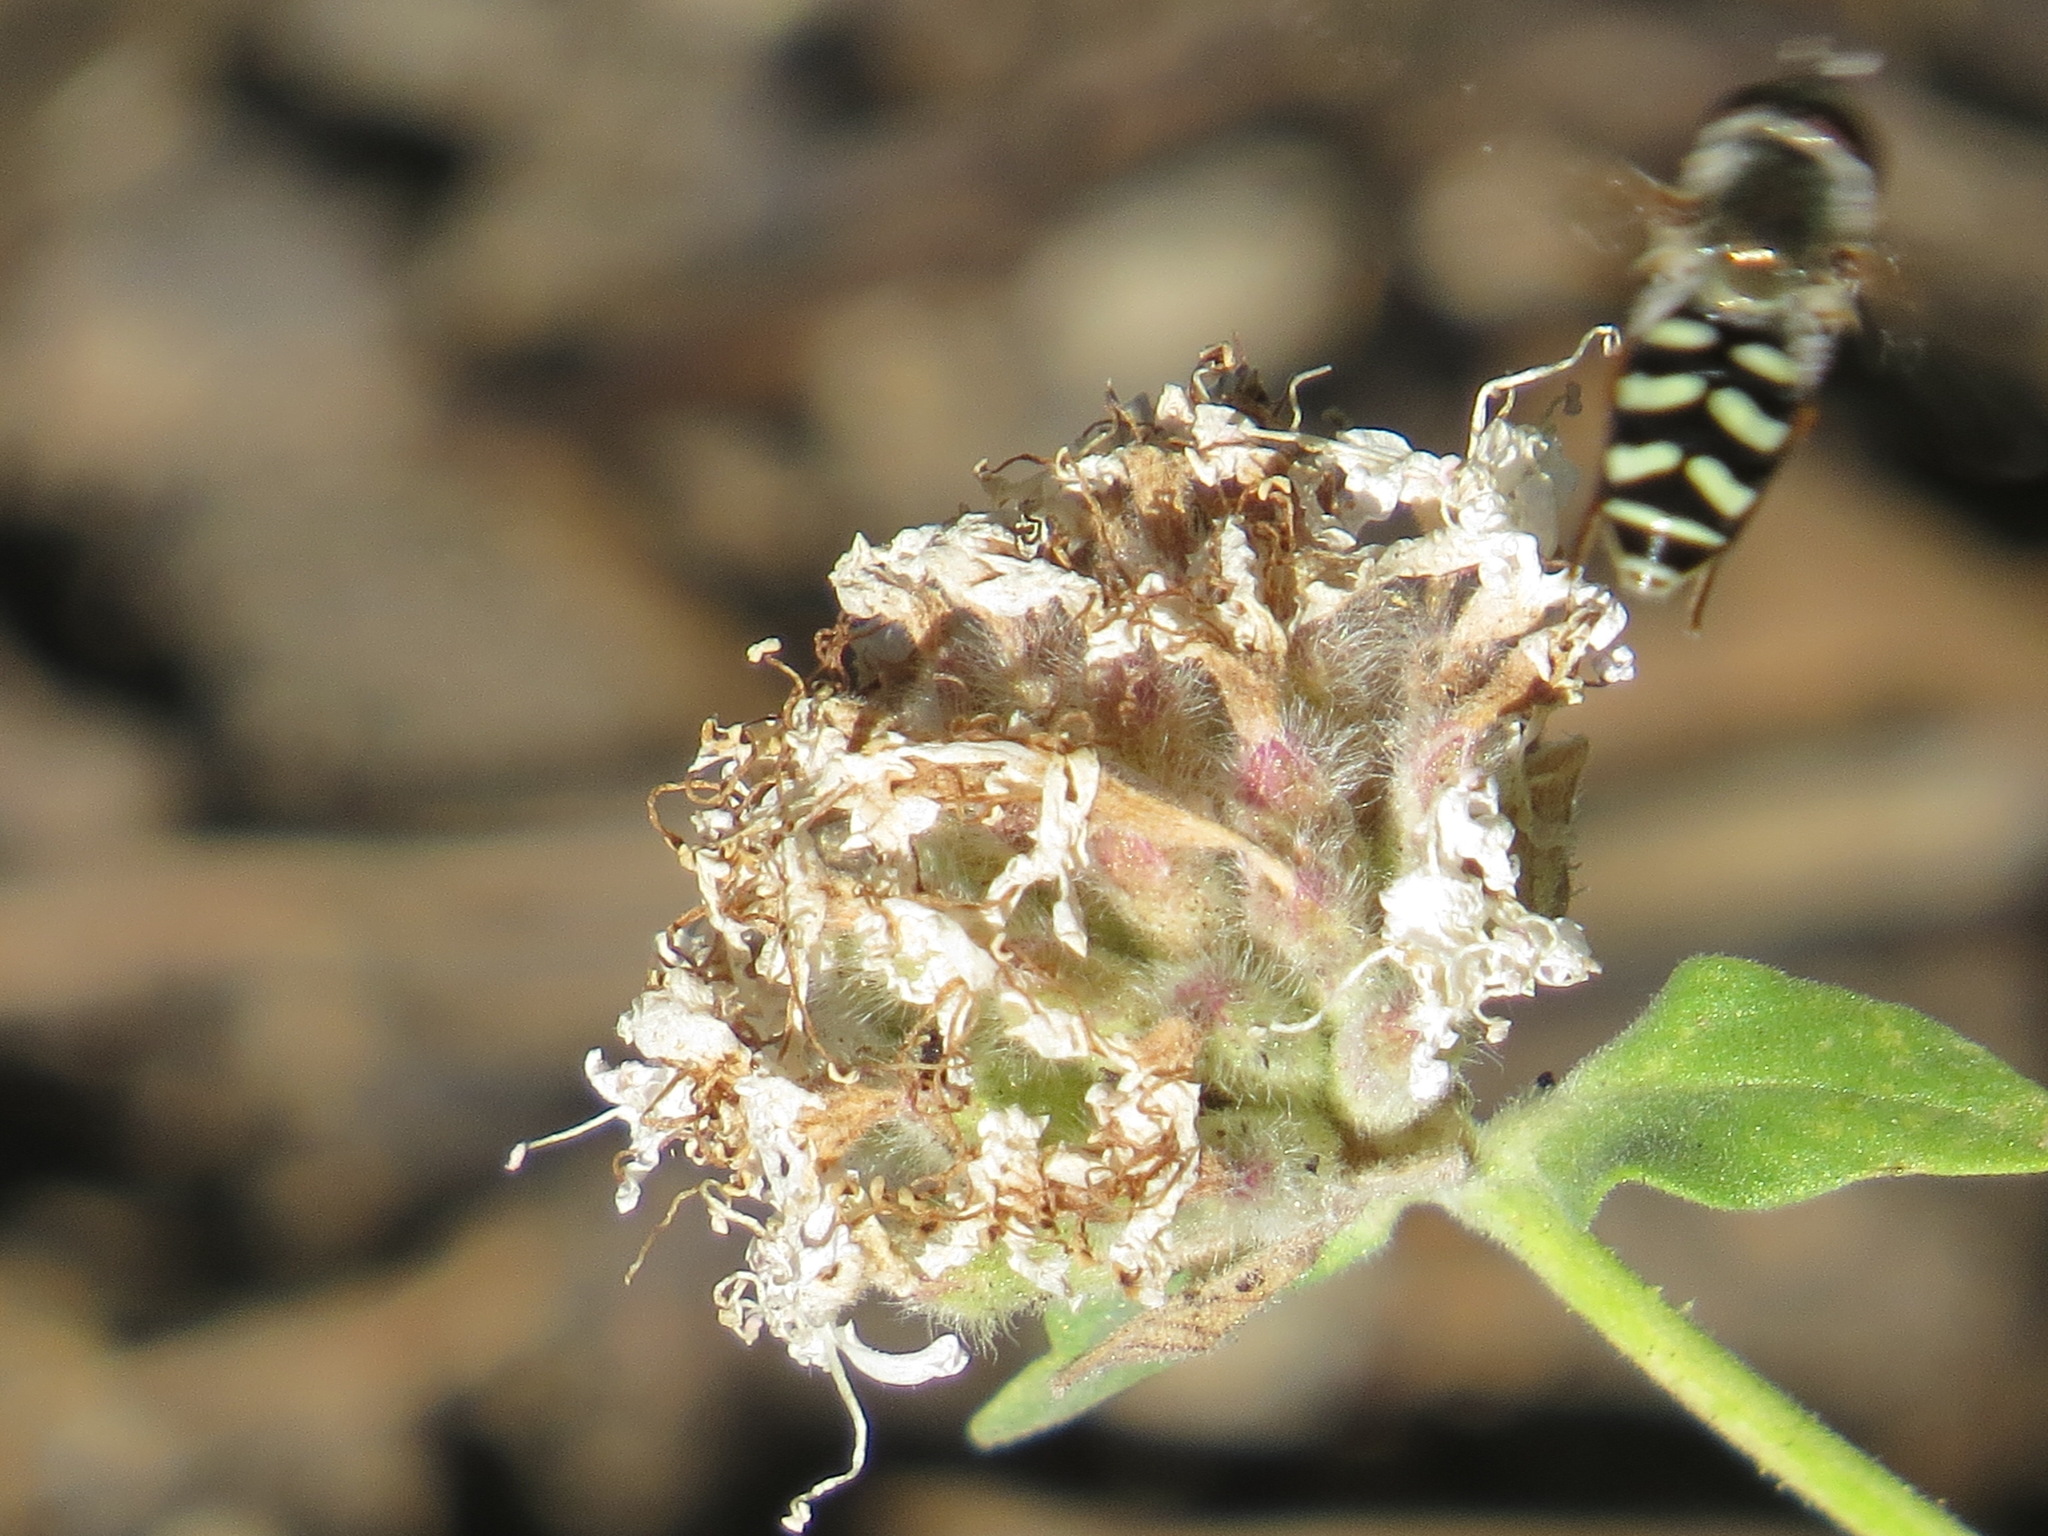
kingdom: Animalia
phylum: Arthropoda
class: Insecta
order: Diptera
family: Syrphidae
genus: Eupeodes
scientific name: Eupeodes volucris
